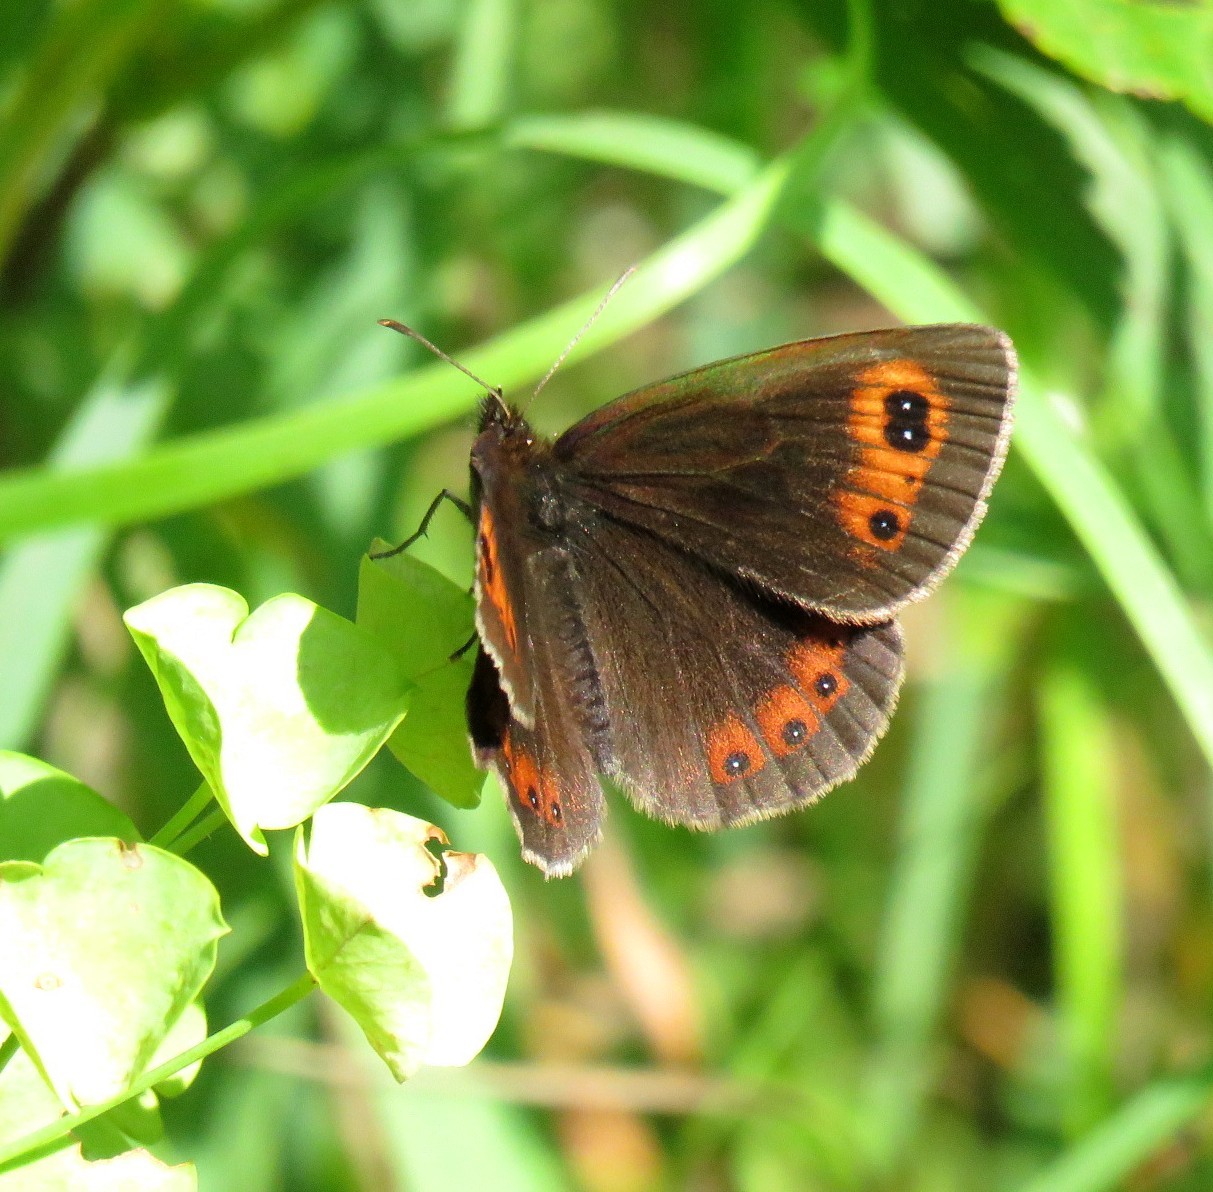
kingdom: Animalia
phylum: Arthropoda
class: Insecta
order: Lepidoptera
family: Nymphalidae
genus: Erebia
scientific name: Erebia aethiops
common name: Scotch argus
